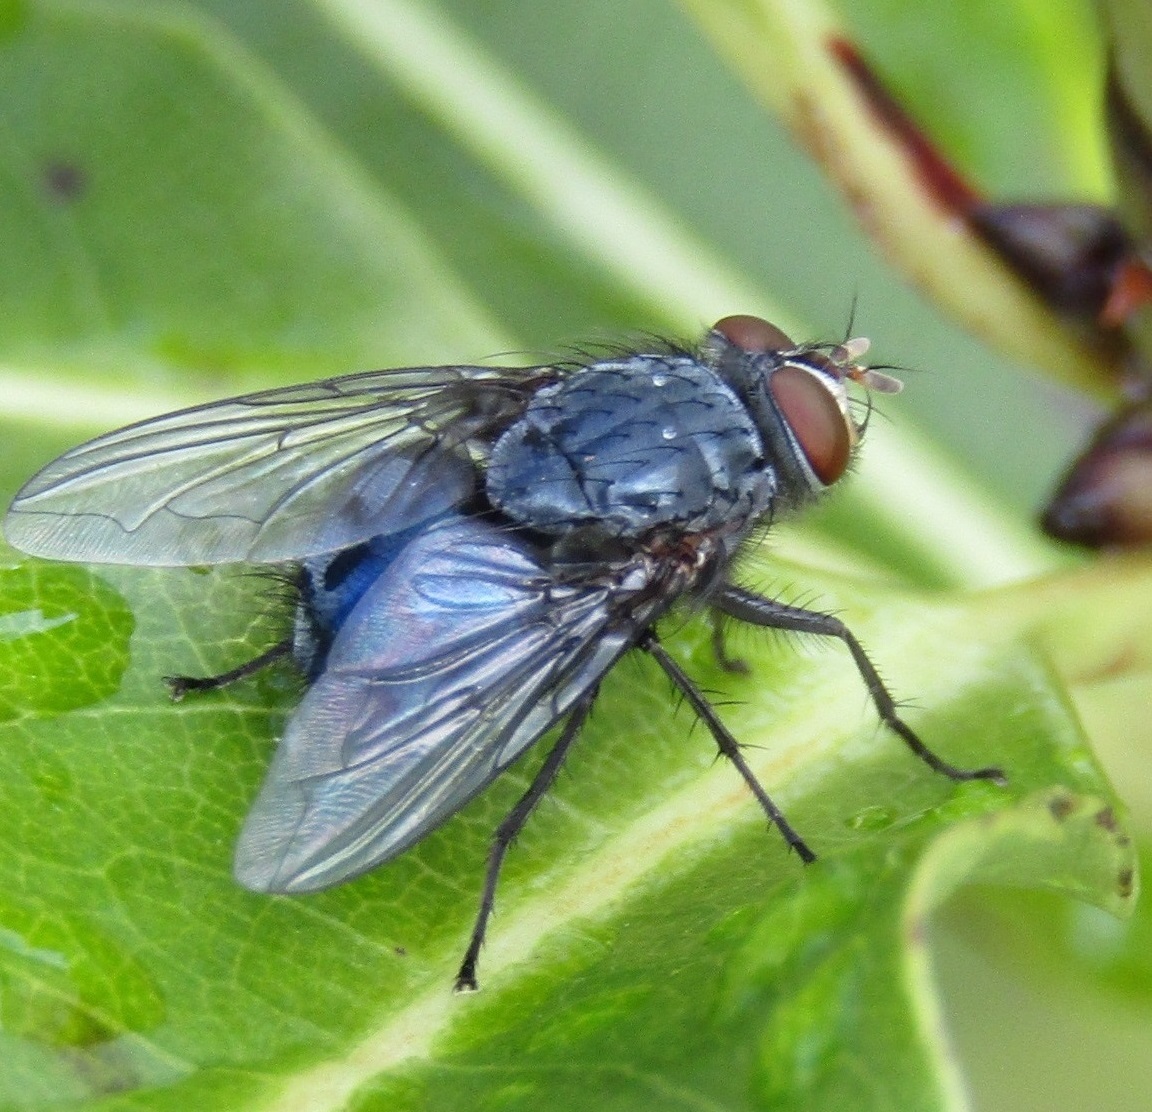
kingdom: Animalia
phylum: Arthropoda
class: Insecta
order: Diptera
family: Calliphoridae
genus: Calliphora
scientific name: Calliphora vicina
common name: Common blow flie
